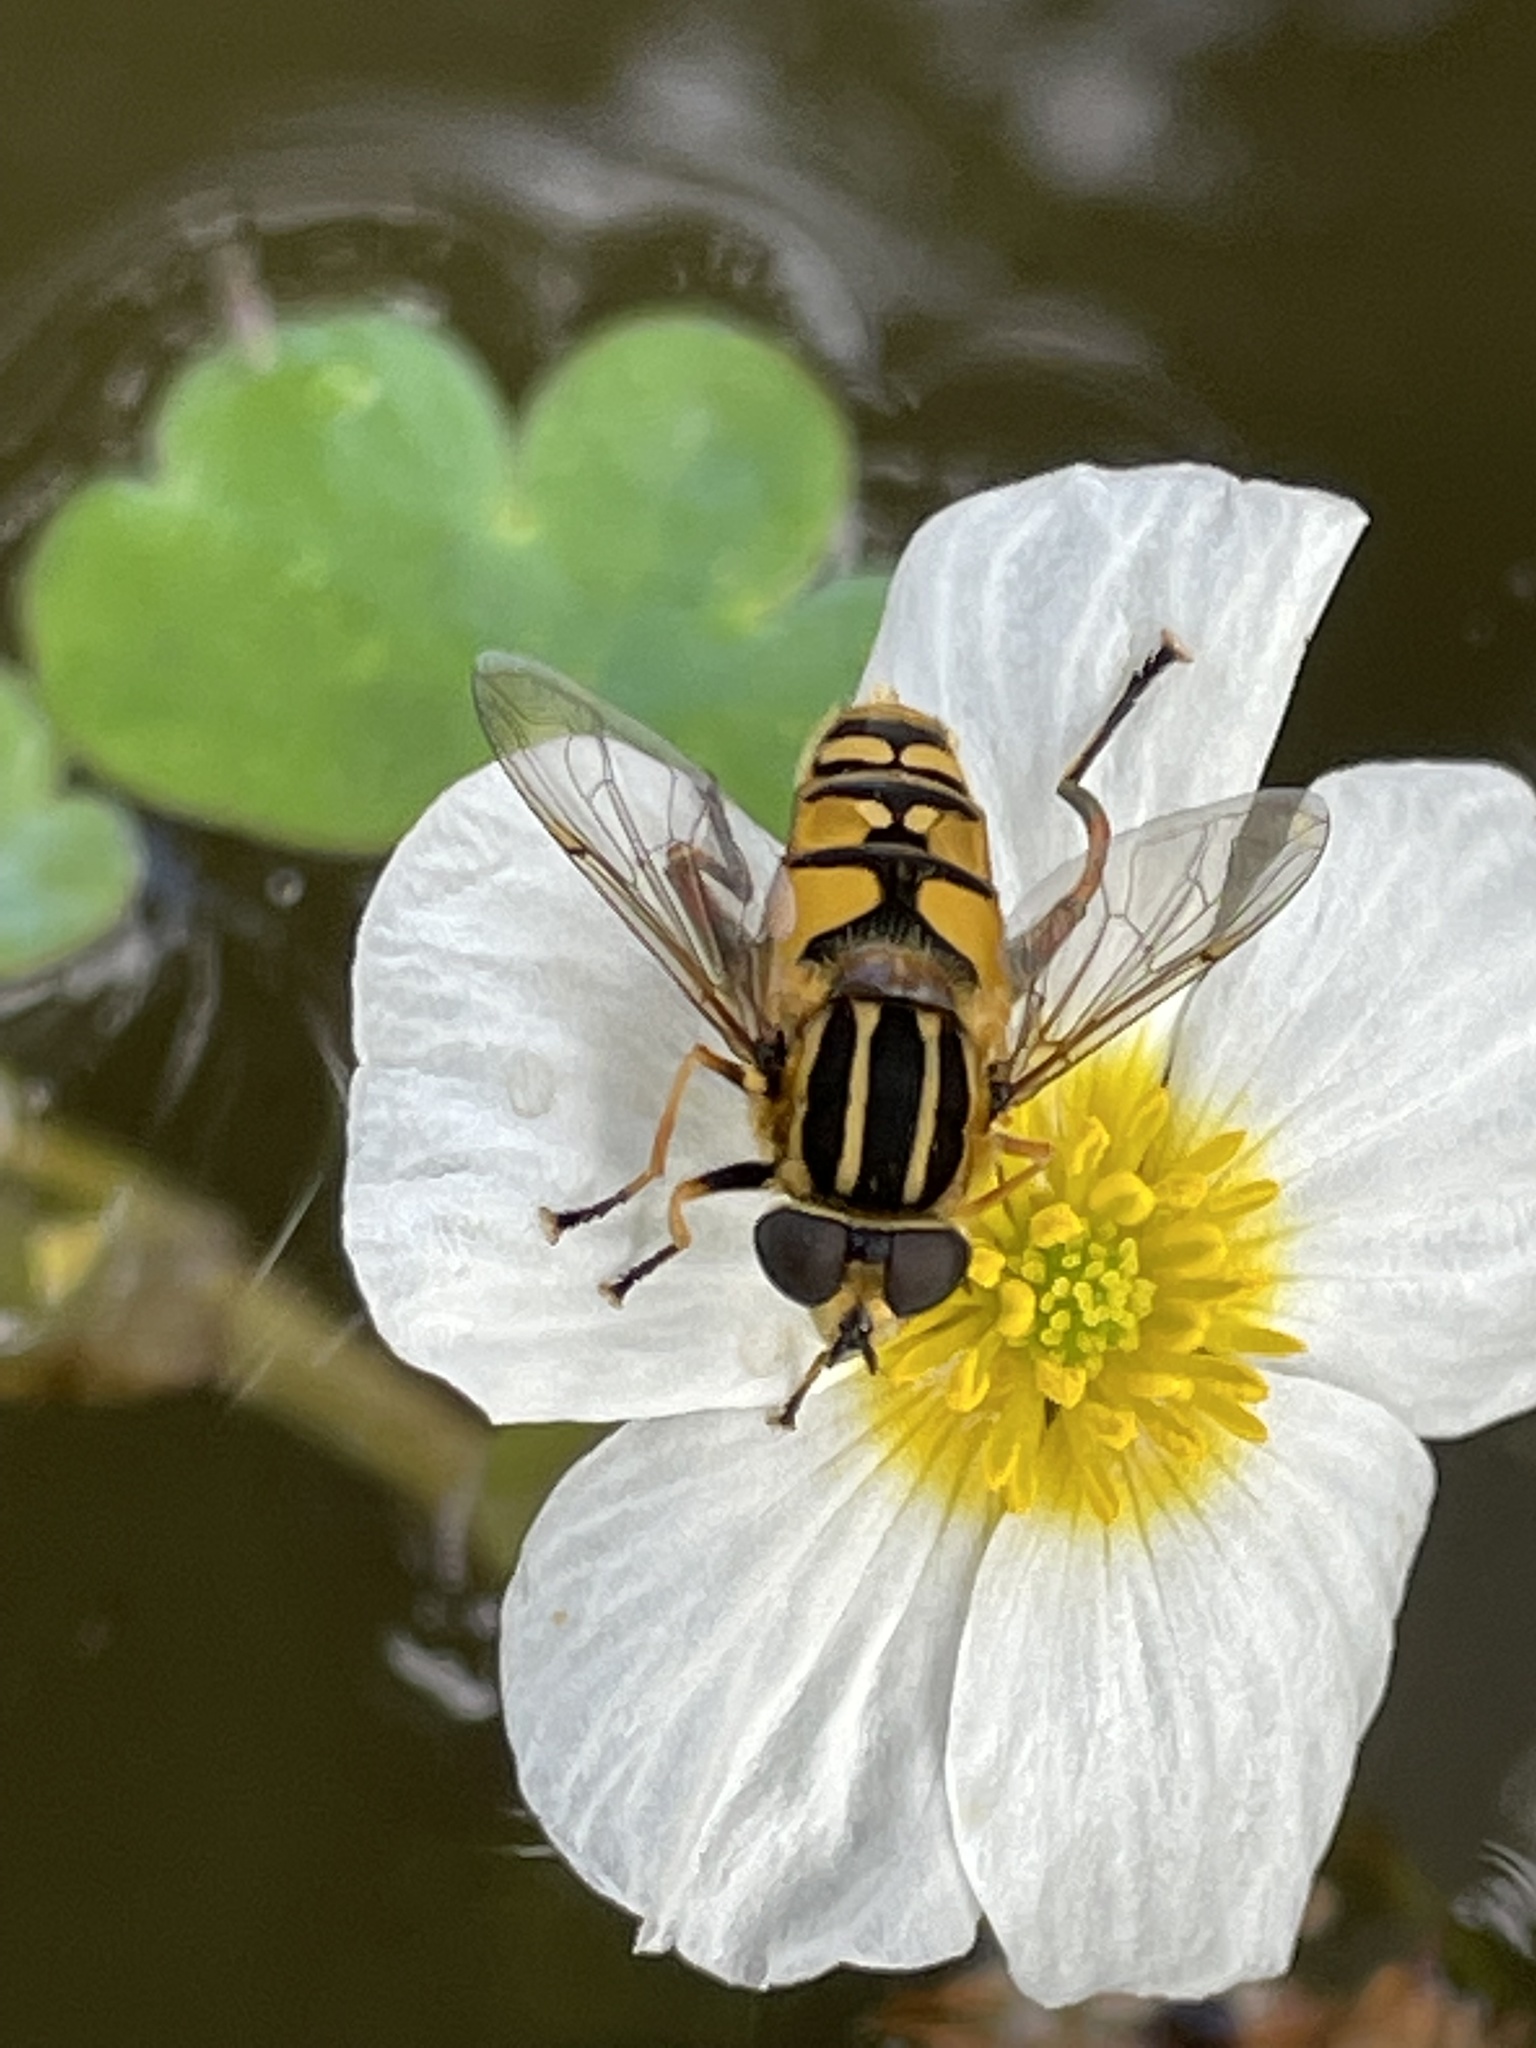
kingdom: Animalia
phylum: Arthropoda
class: Insecta
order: Diptera
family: Syrphidae
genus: Helophilus
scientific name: Helophilus pendulus
